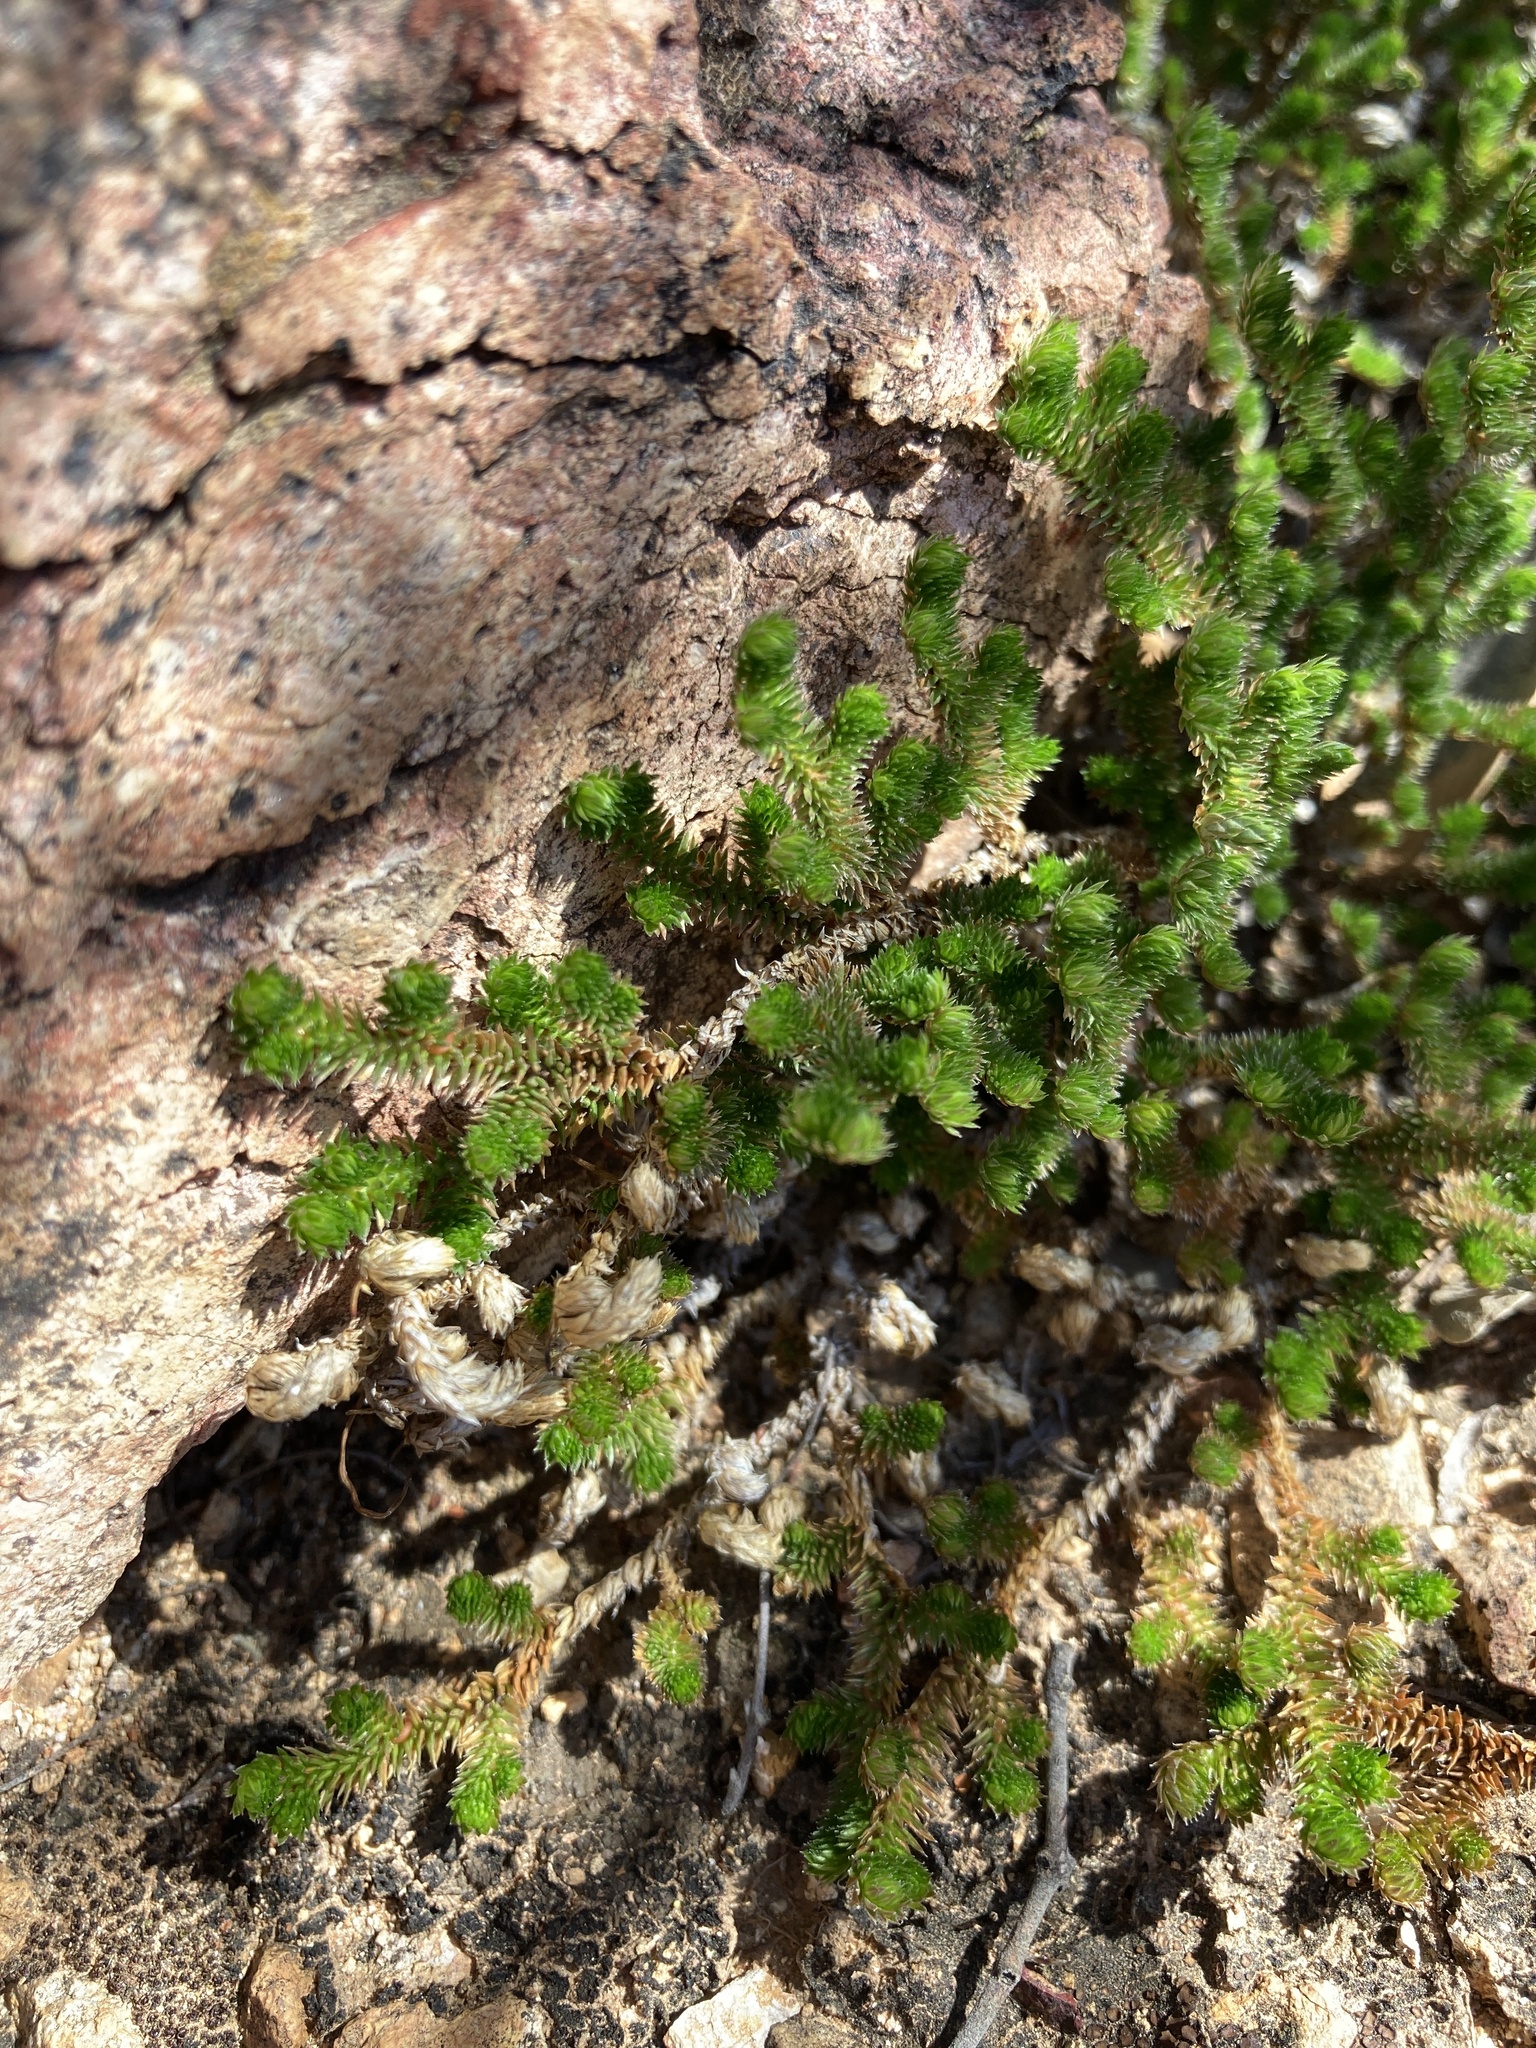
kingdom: Plantae
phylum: Tracheophyta
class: Lycopodiopsida
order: Selaginellales
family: Selaginellaceae
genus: Selaginella
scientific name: Selaginella arizonica
